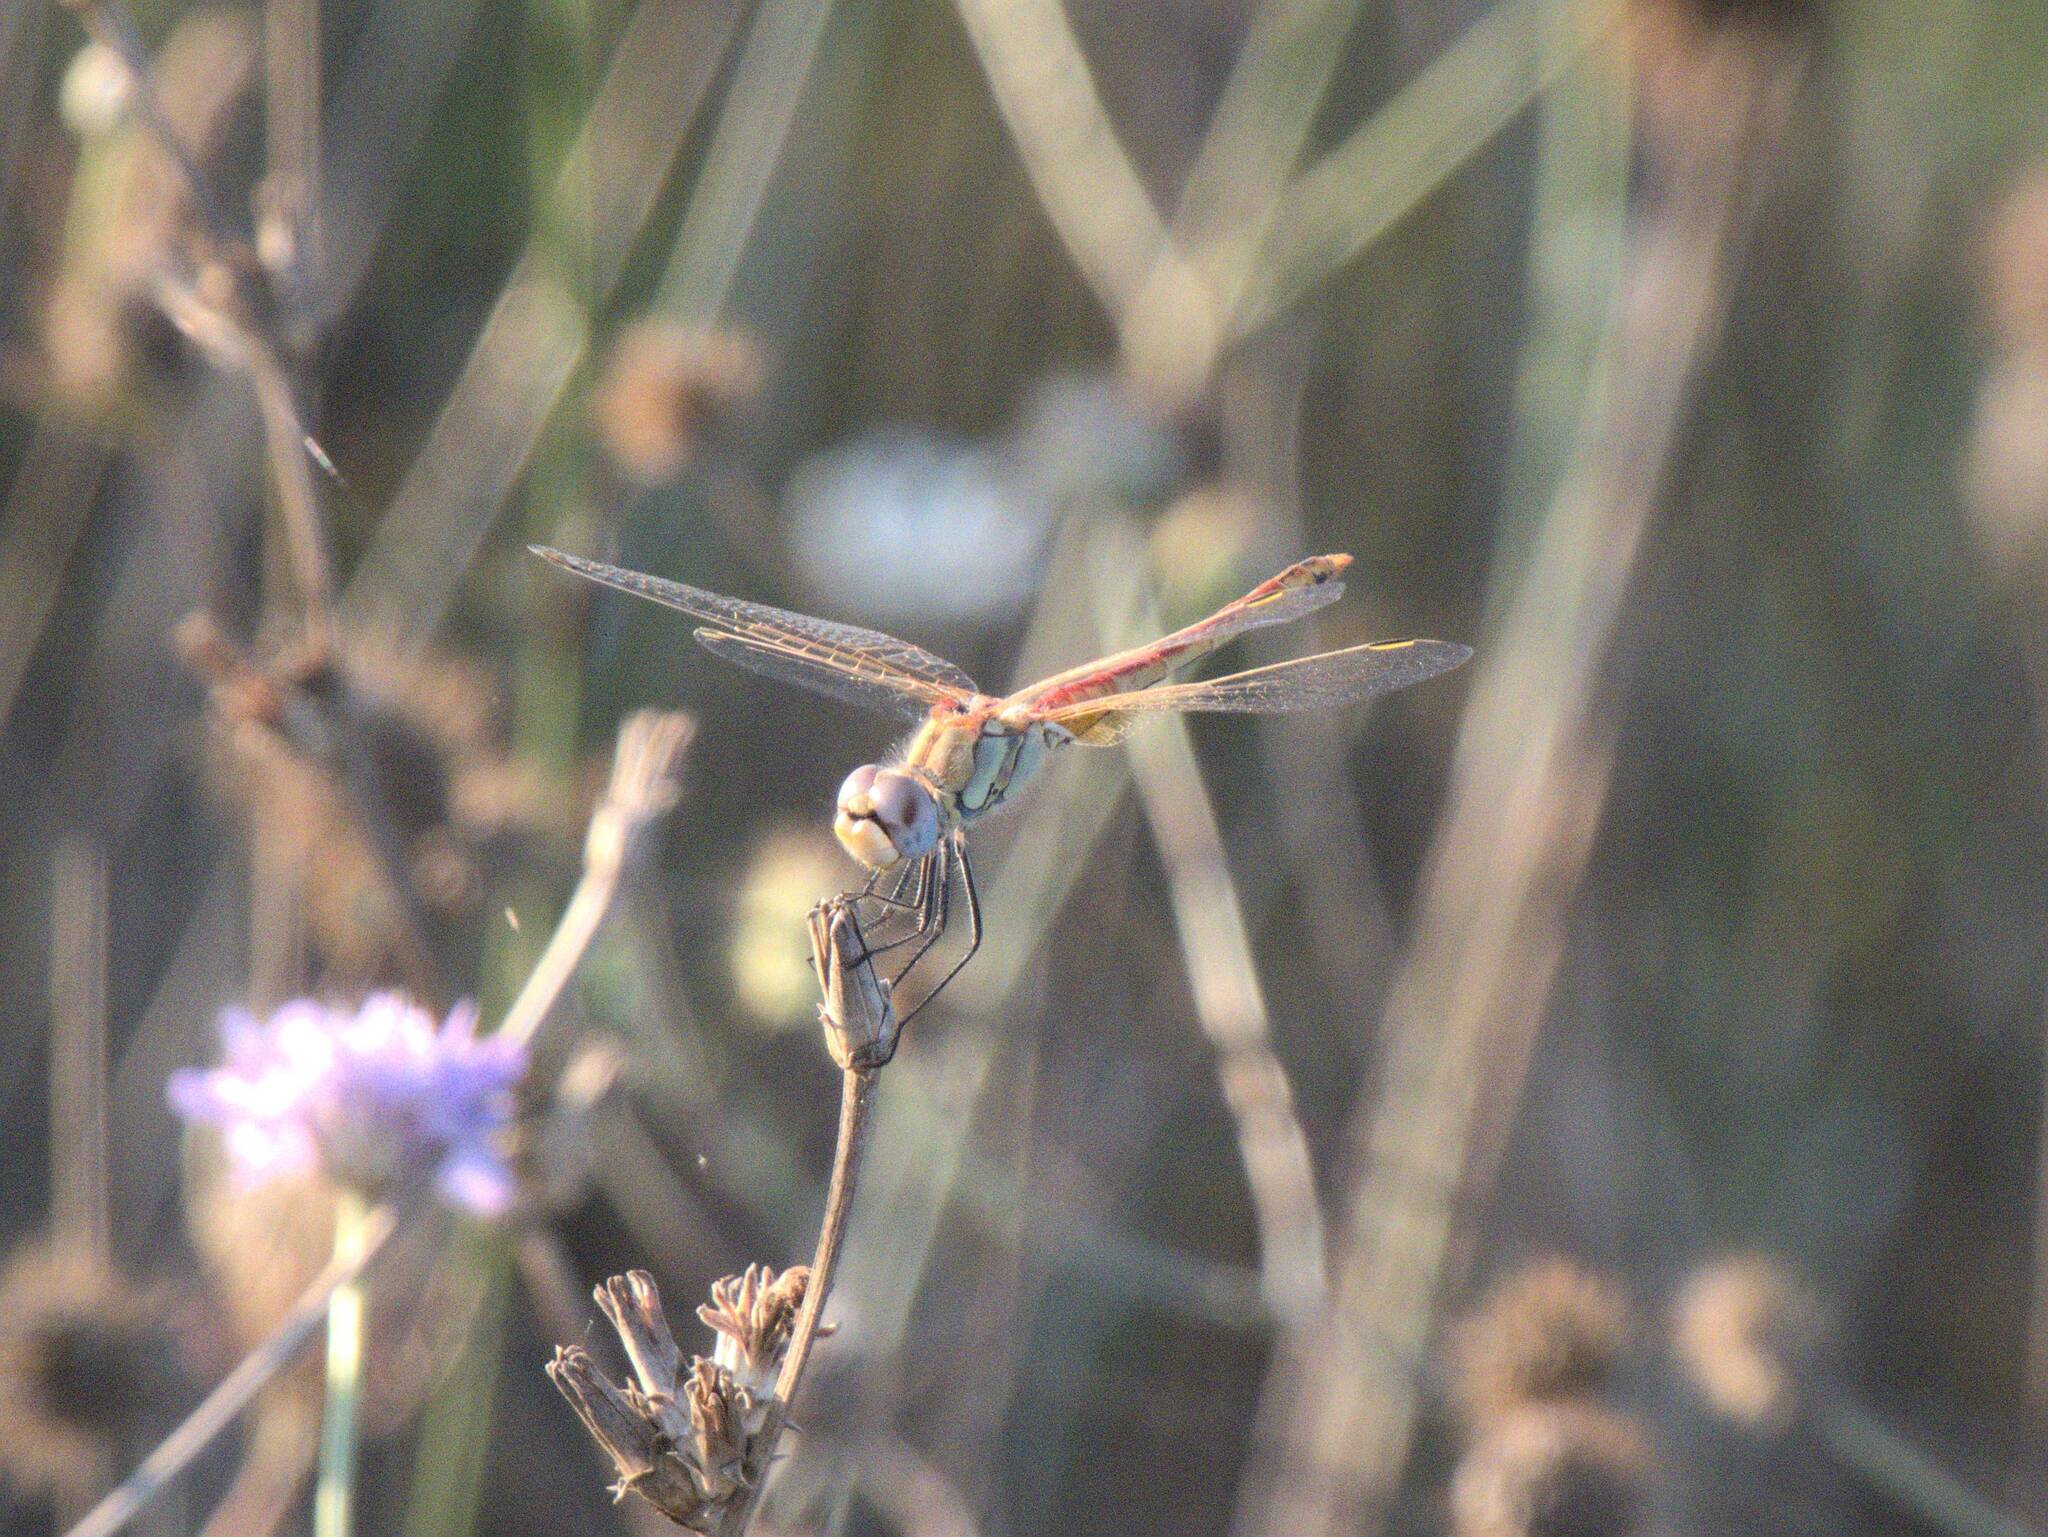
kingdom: Animalia
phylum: Arthropoda
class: Insecta
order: Odonata
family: Libellulidae
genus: Sympetrum
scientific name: Sympetrum fonscolombii
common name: Red-veined darter
